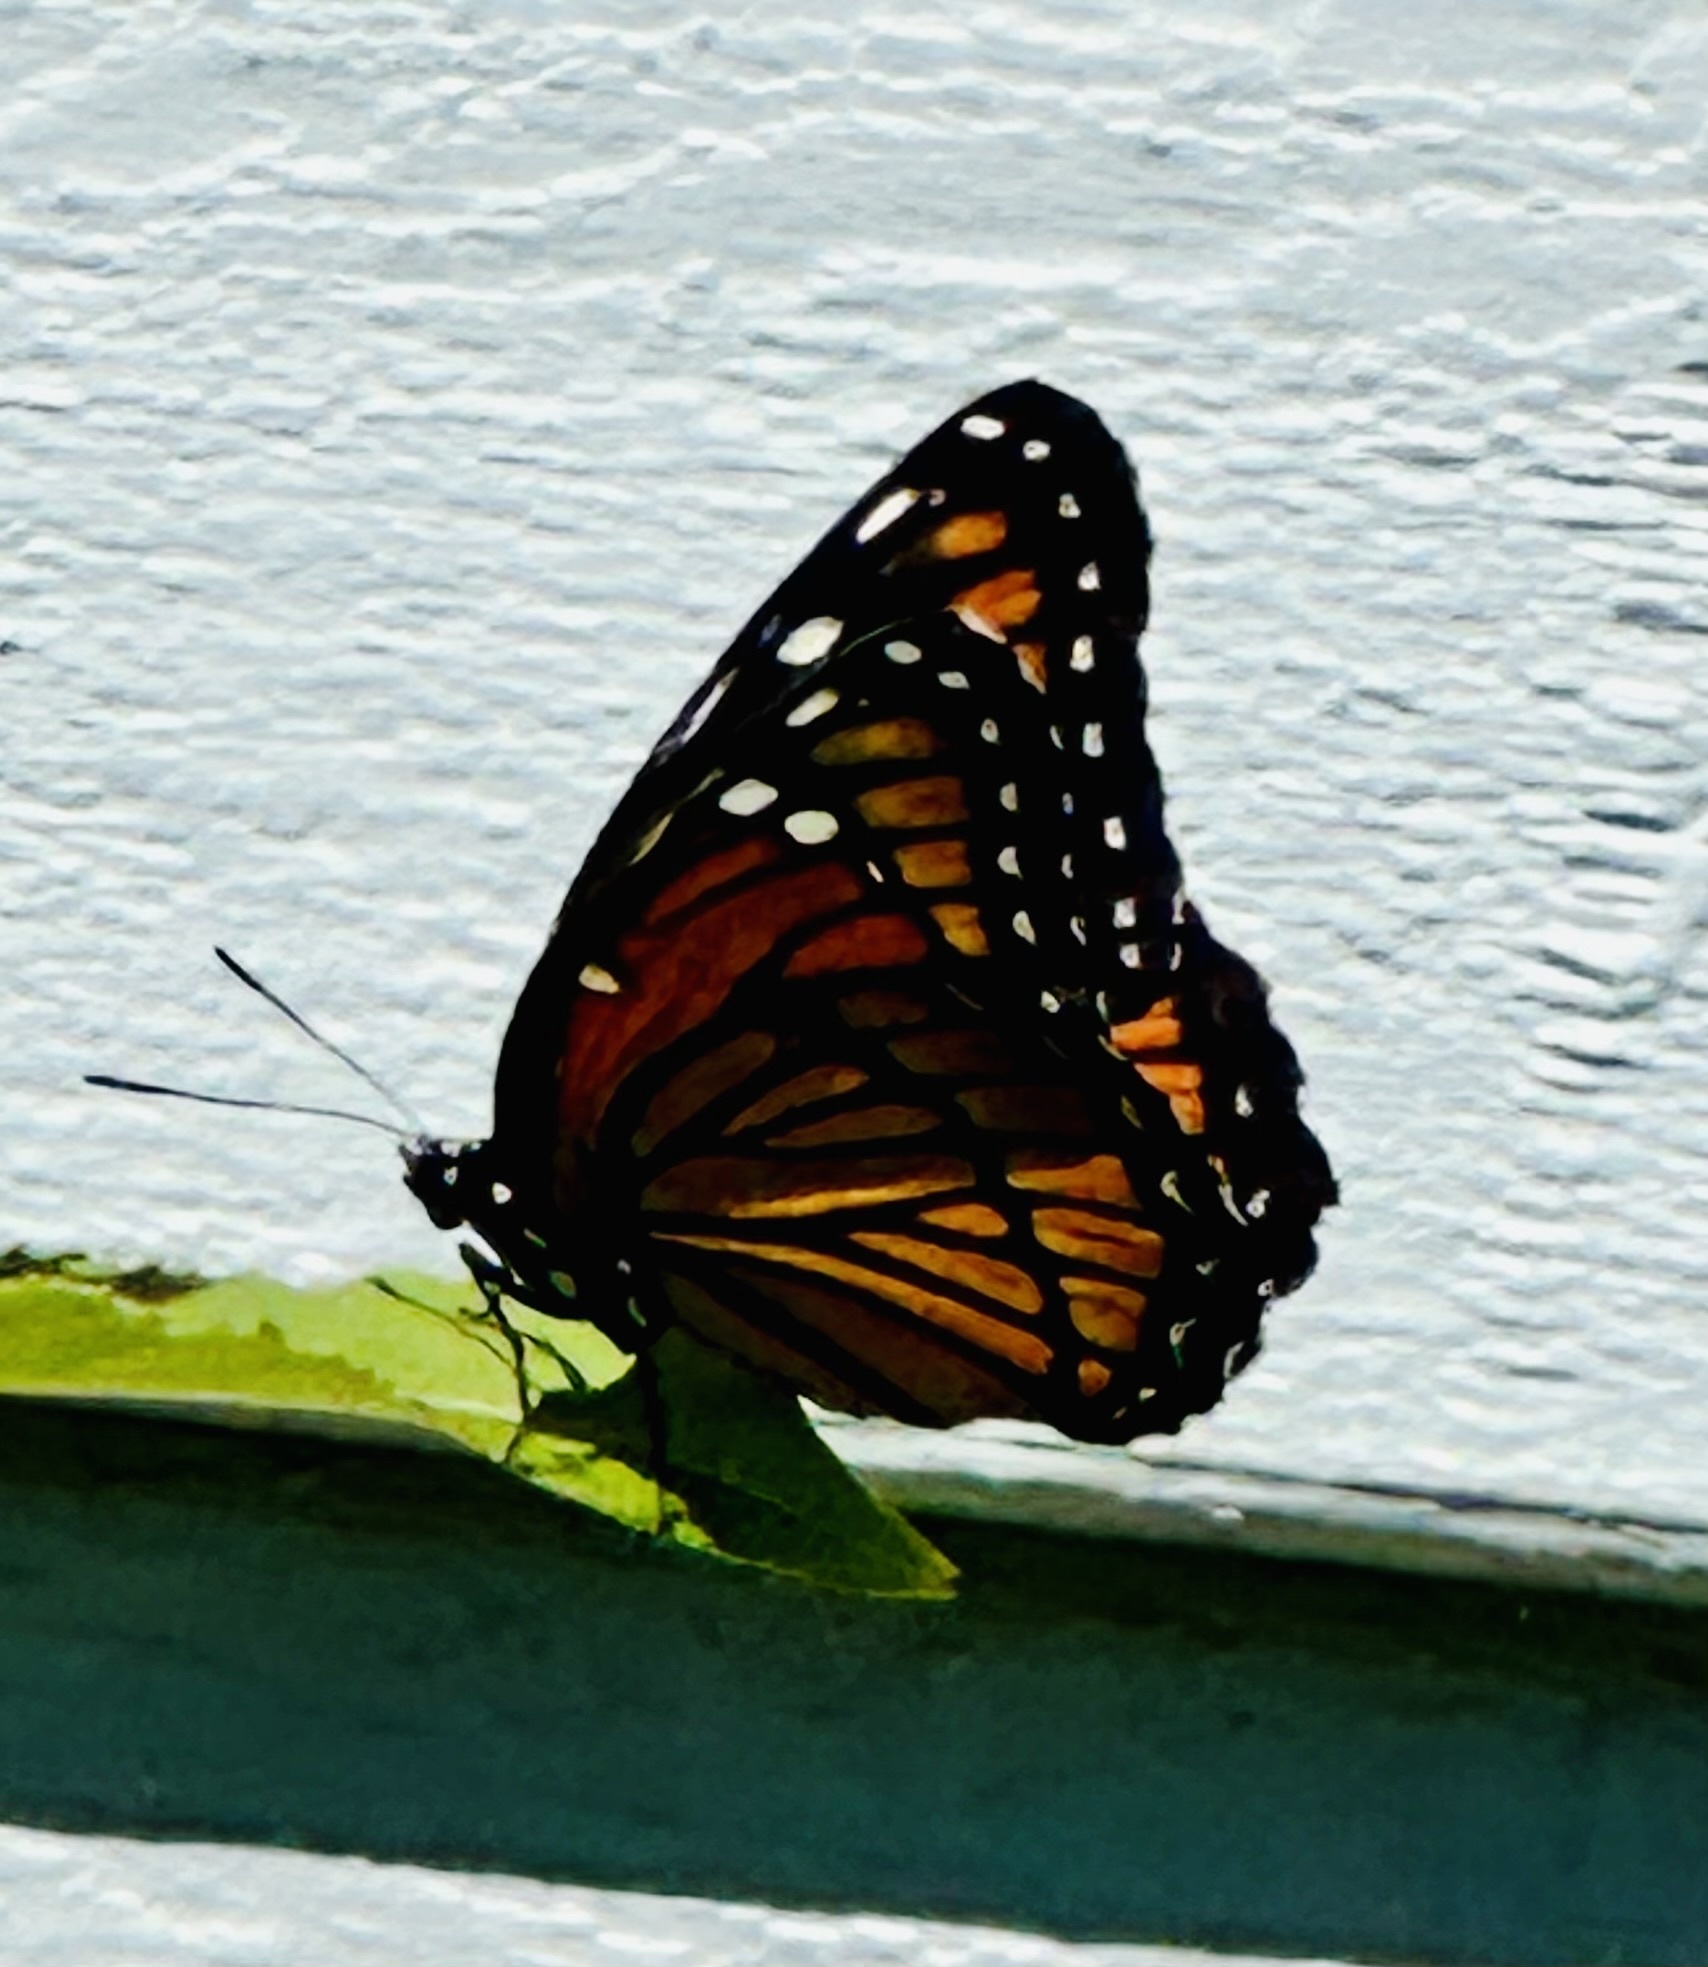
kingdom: Animalia
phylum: Arthropoda
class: Insecta
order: Lepidoptera
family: Nymphalidae
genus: Limenitis
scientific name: Limenitis archippus
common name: Viceroy
